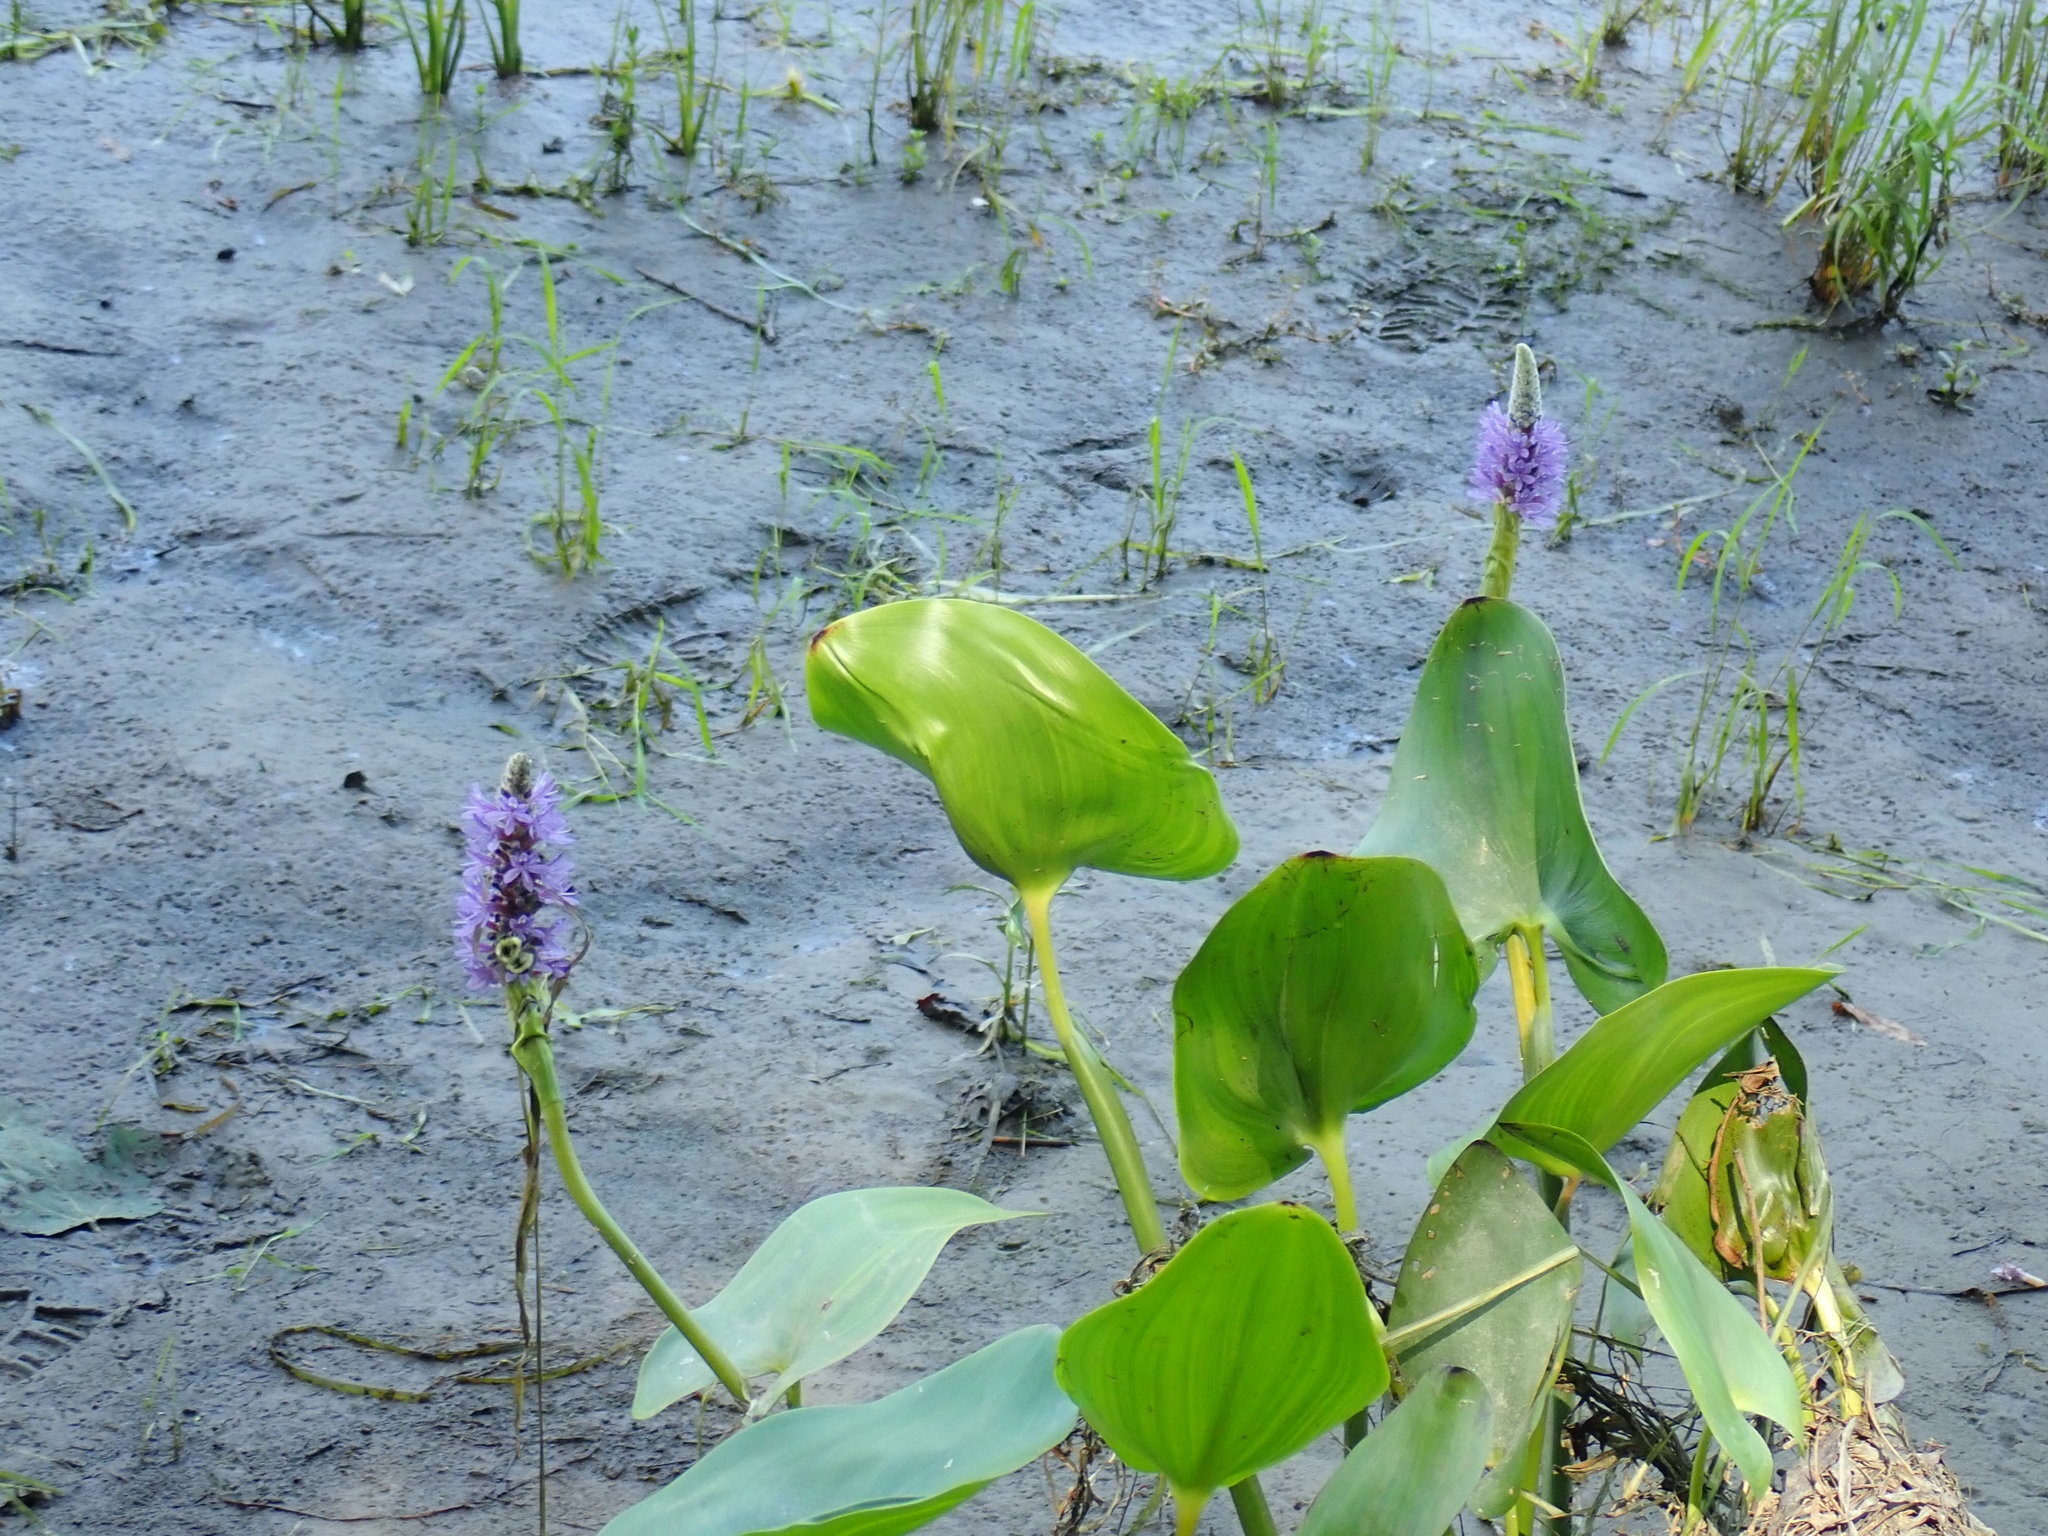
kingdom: Plantae
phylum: Tracheophyta
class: Liliopsida
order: Commelinales
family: Pontederiaceae
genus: Pontederia
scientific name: Pontederia cordata
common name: Pickerelweed
